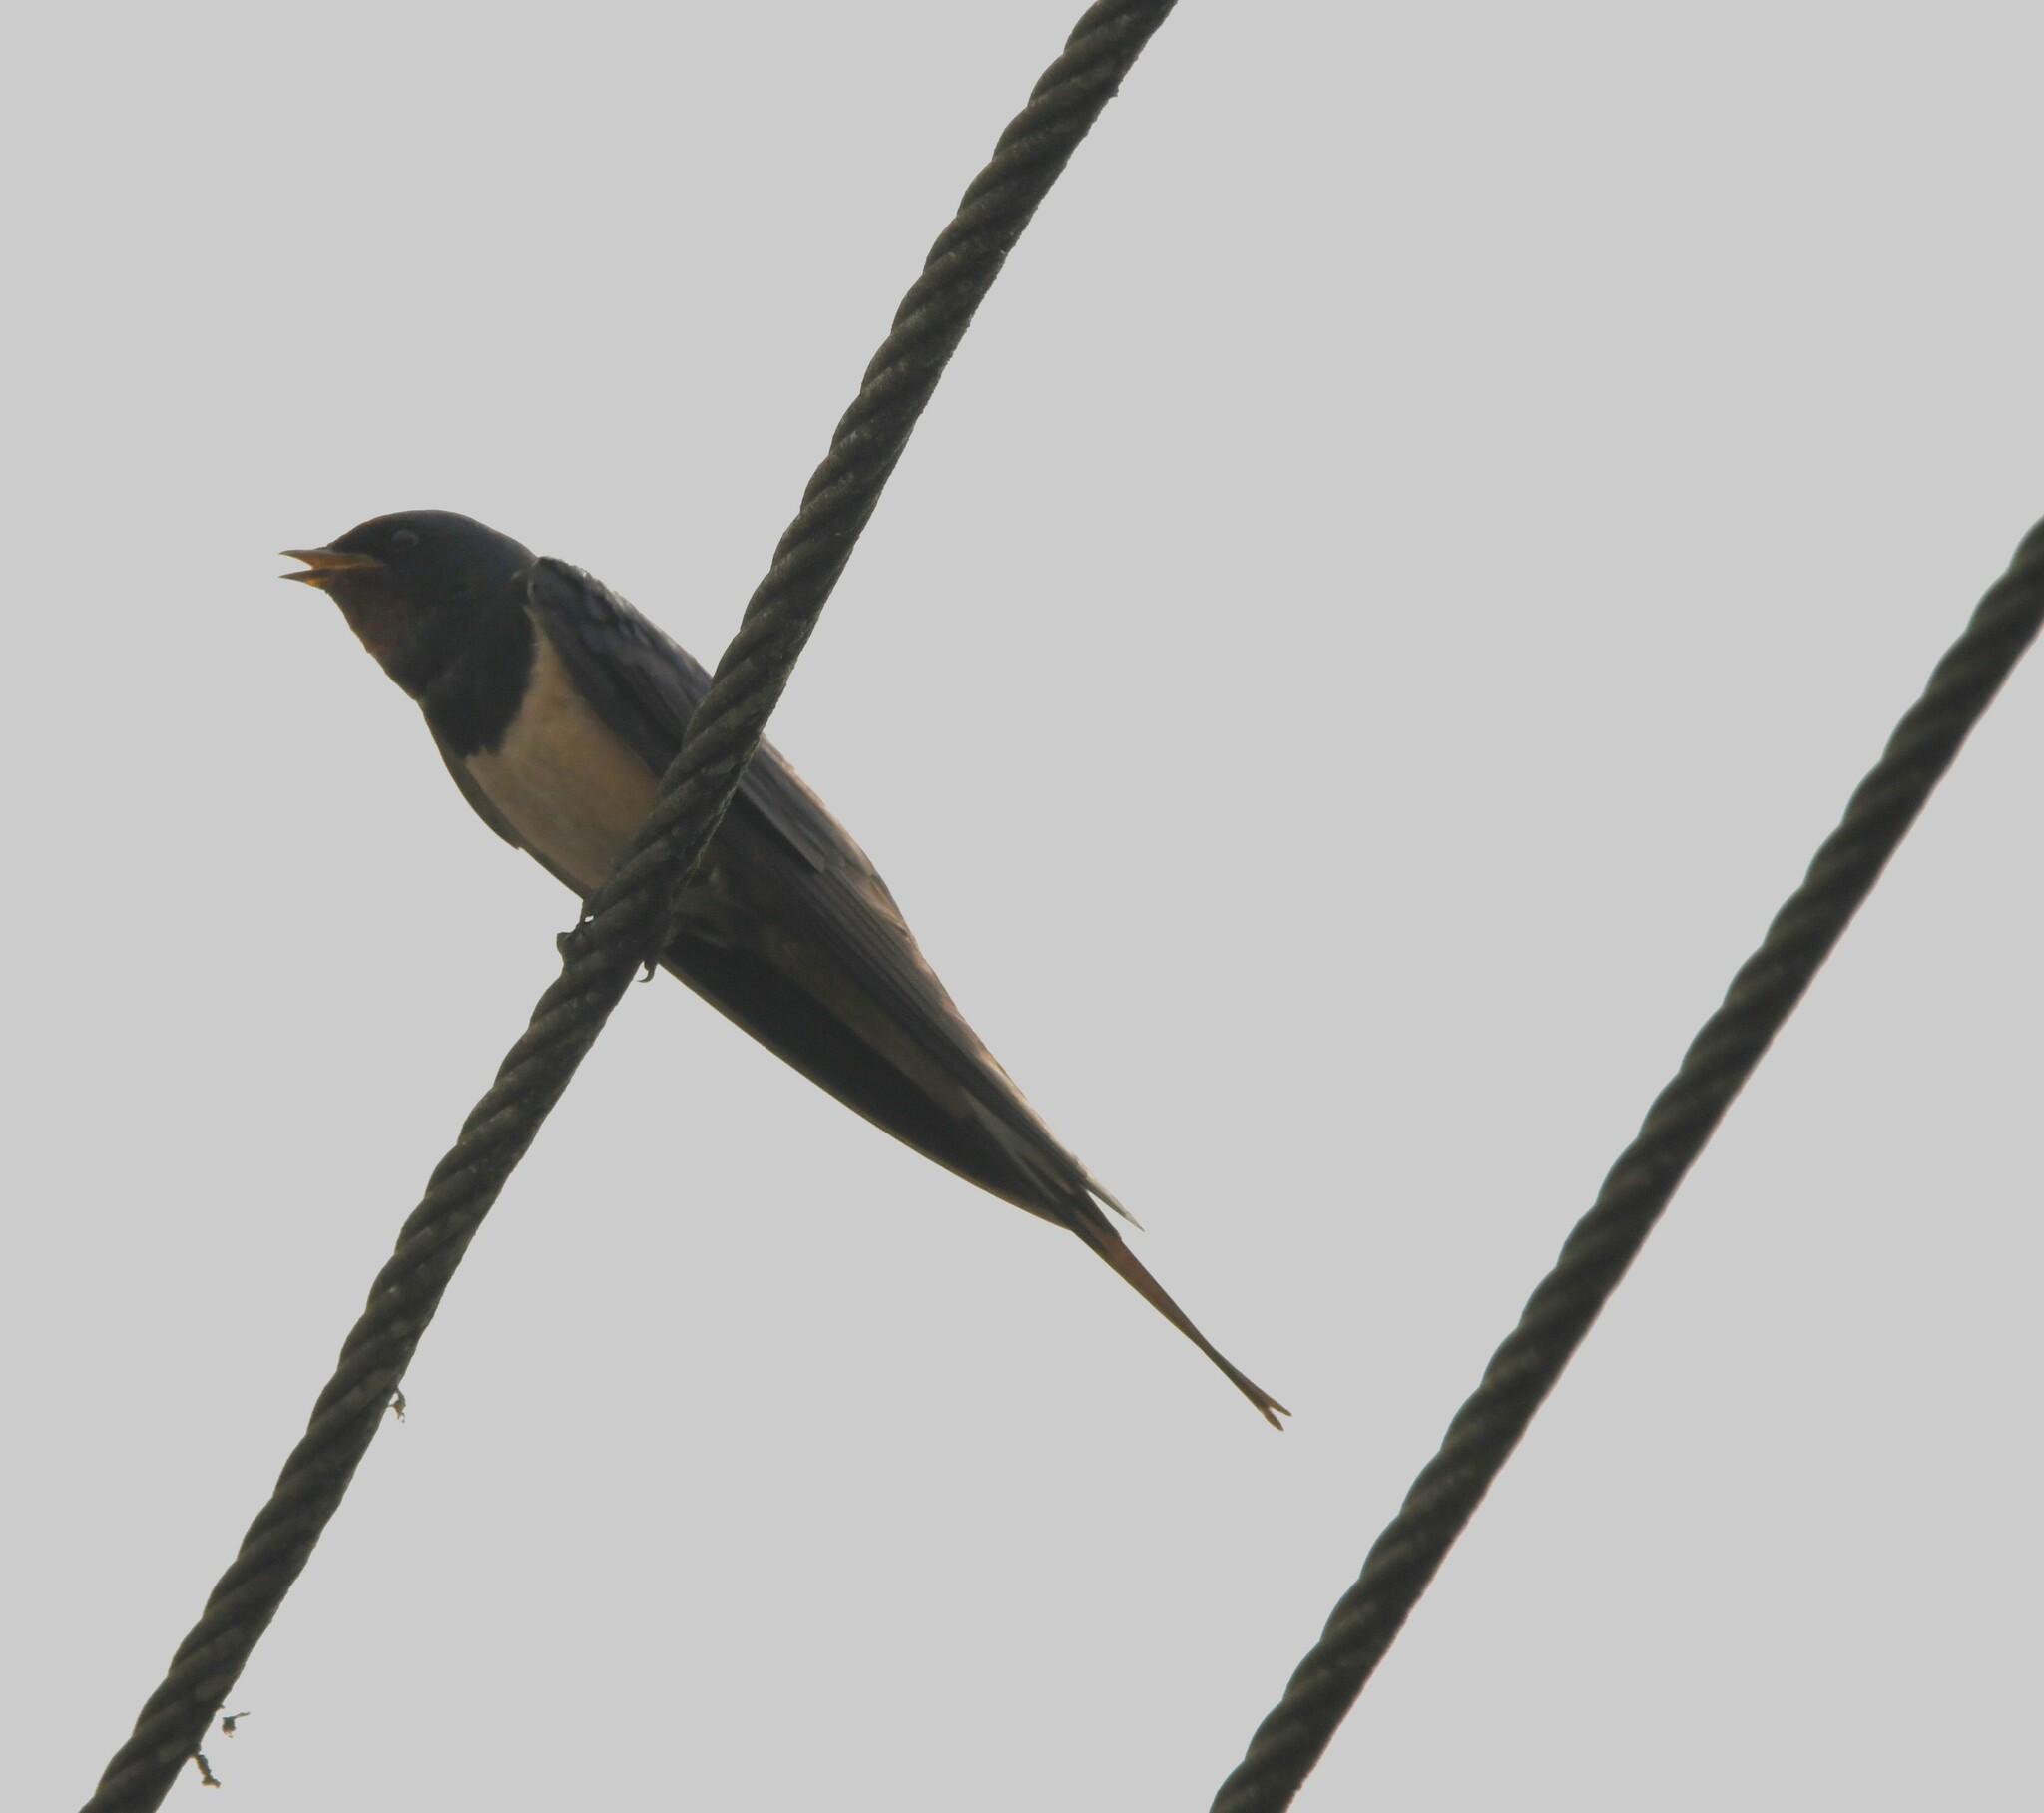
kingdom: Animalia
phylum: Chordata
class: Aves
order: Passeriformes
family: Hirundinidae
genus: Hirundo
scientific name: Hirundo rustica
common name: Barn swallow
